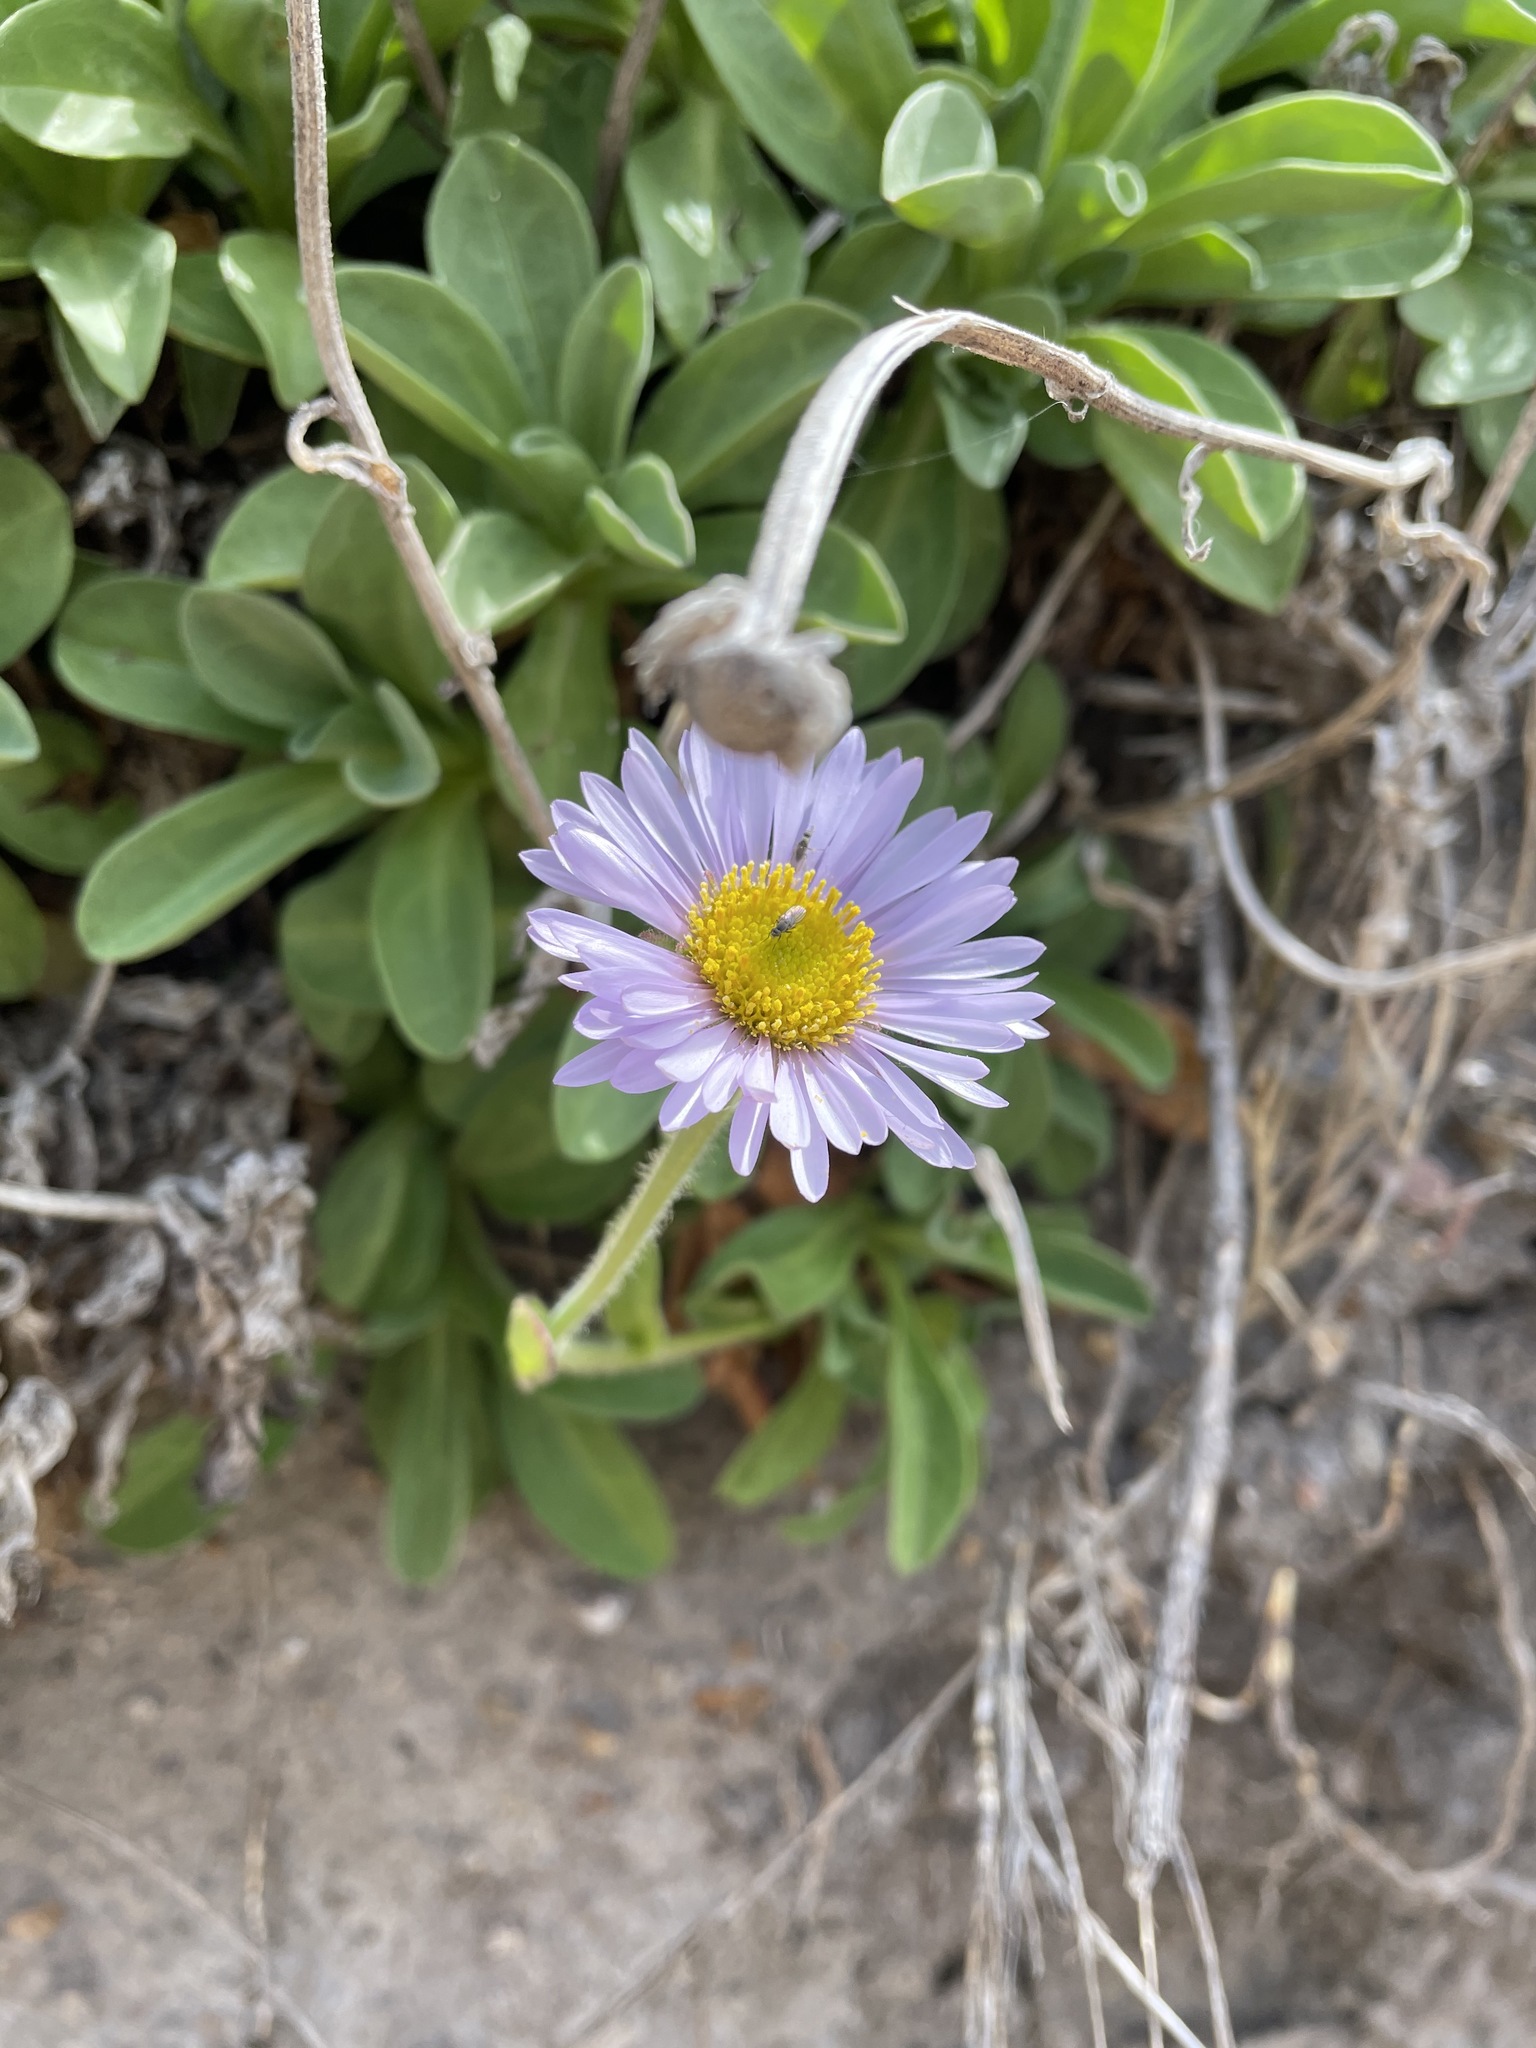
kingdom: Plantae
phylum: Tracheophyta
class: Magnoliopsida
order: Asterales
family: Asteraceae
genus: Erigeron
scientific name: Erigeron glaucus
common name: Seaside daisy
